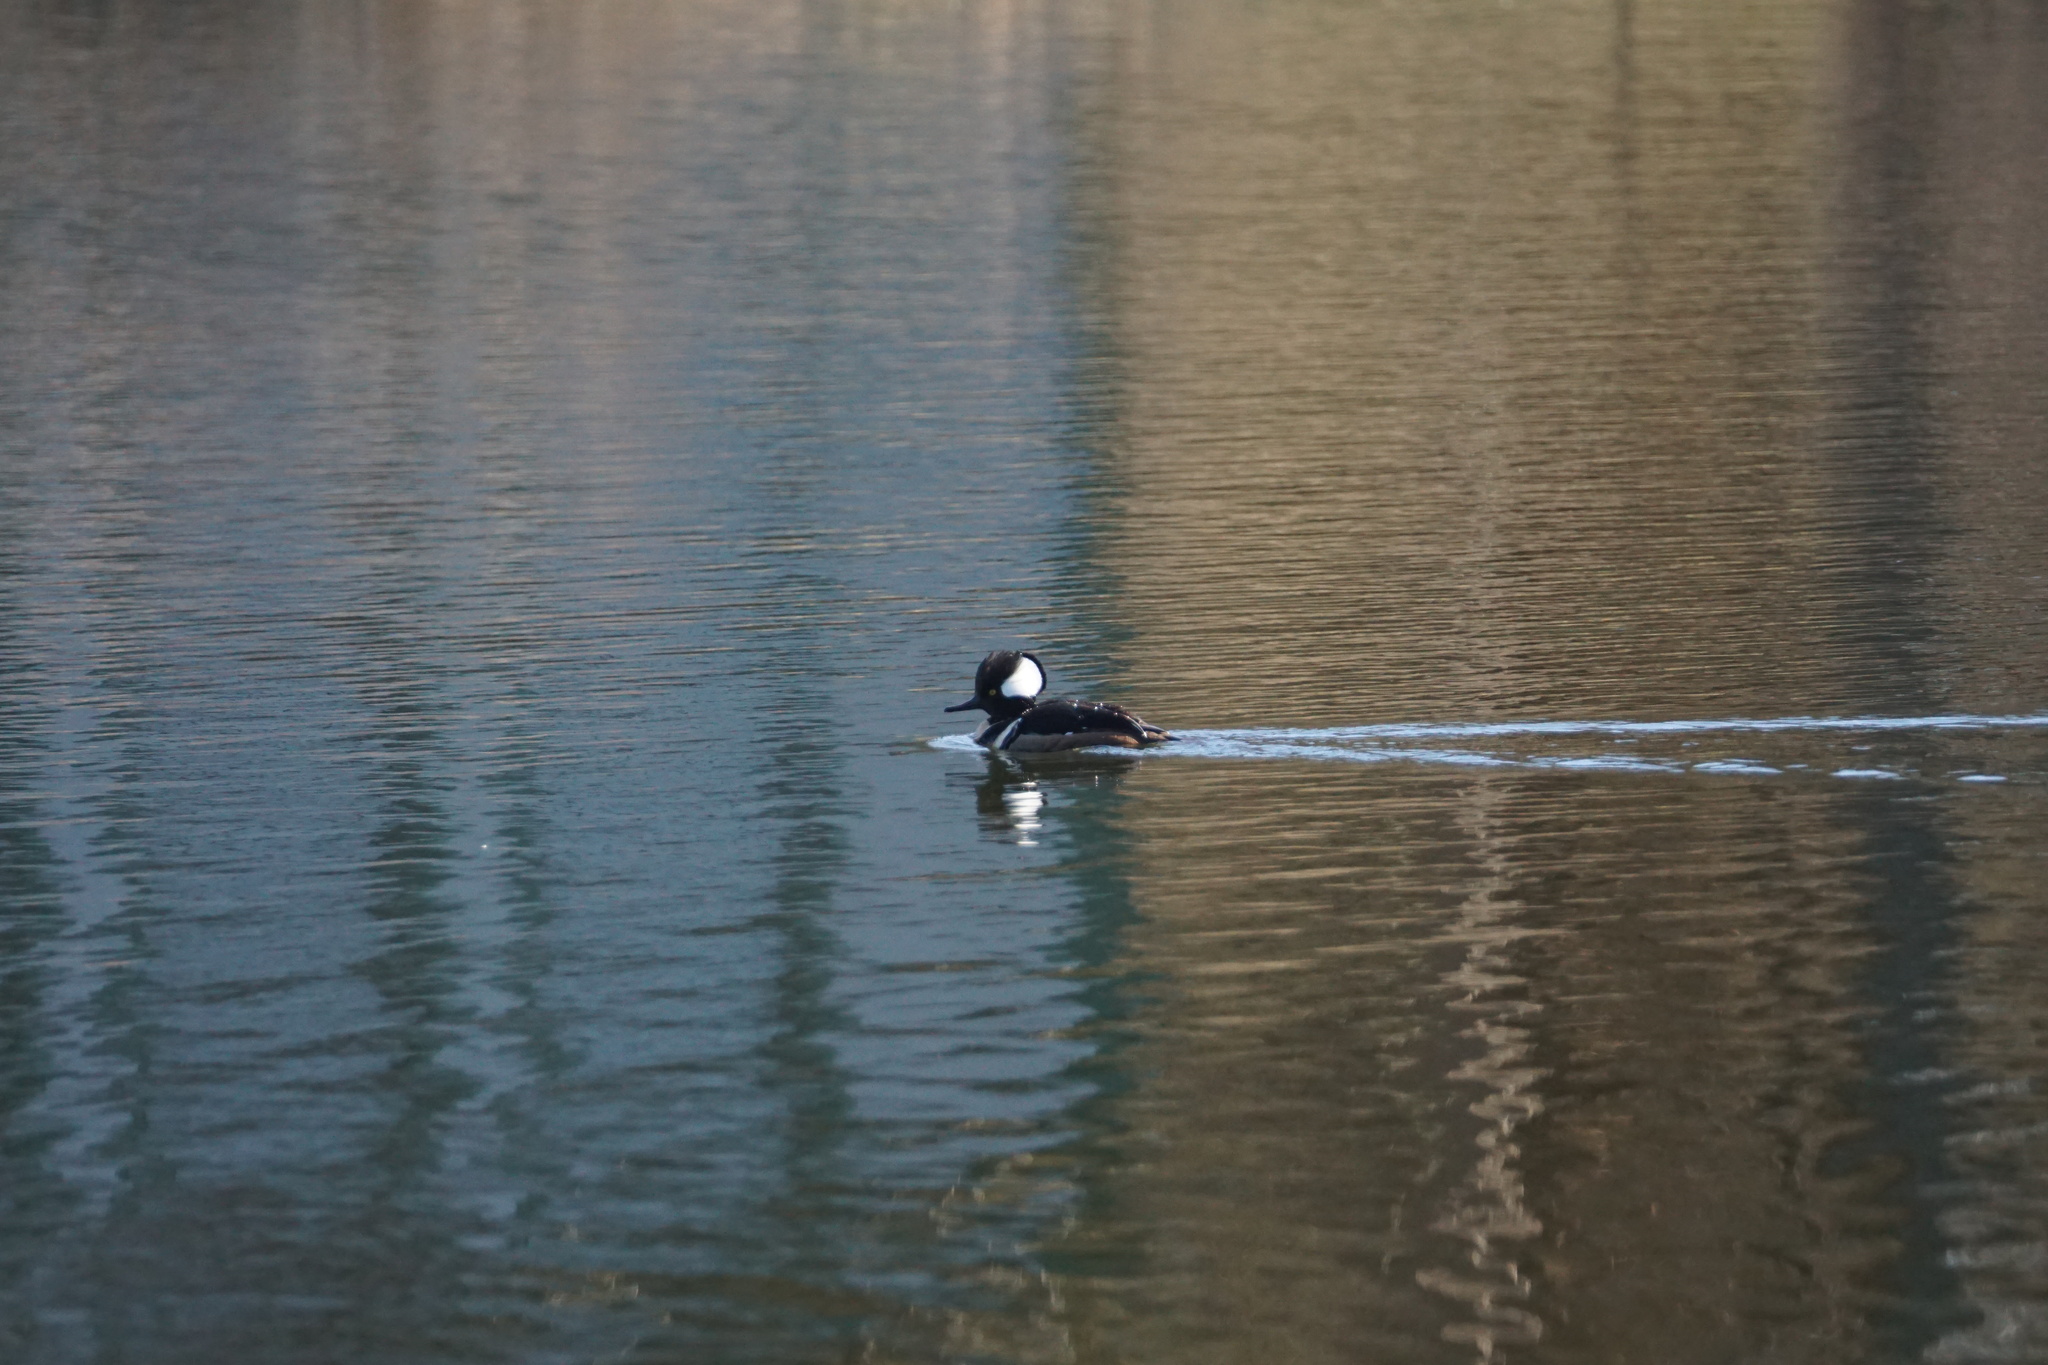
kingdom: Animalia
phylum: Chordata
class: Aves
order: Anseriformes
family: Anatidae
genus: Lophodytes
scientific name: Lophodytes cucullatus
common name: Hooded merganser
